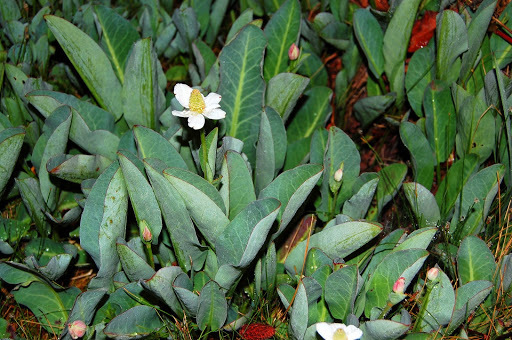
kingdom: Plantae
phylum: Tracheophyta
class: Magnoliopsida
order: Piperales
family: Saururaceae
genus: Anemopsis
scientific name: Anemopsis californica
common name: Apache-beads
